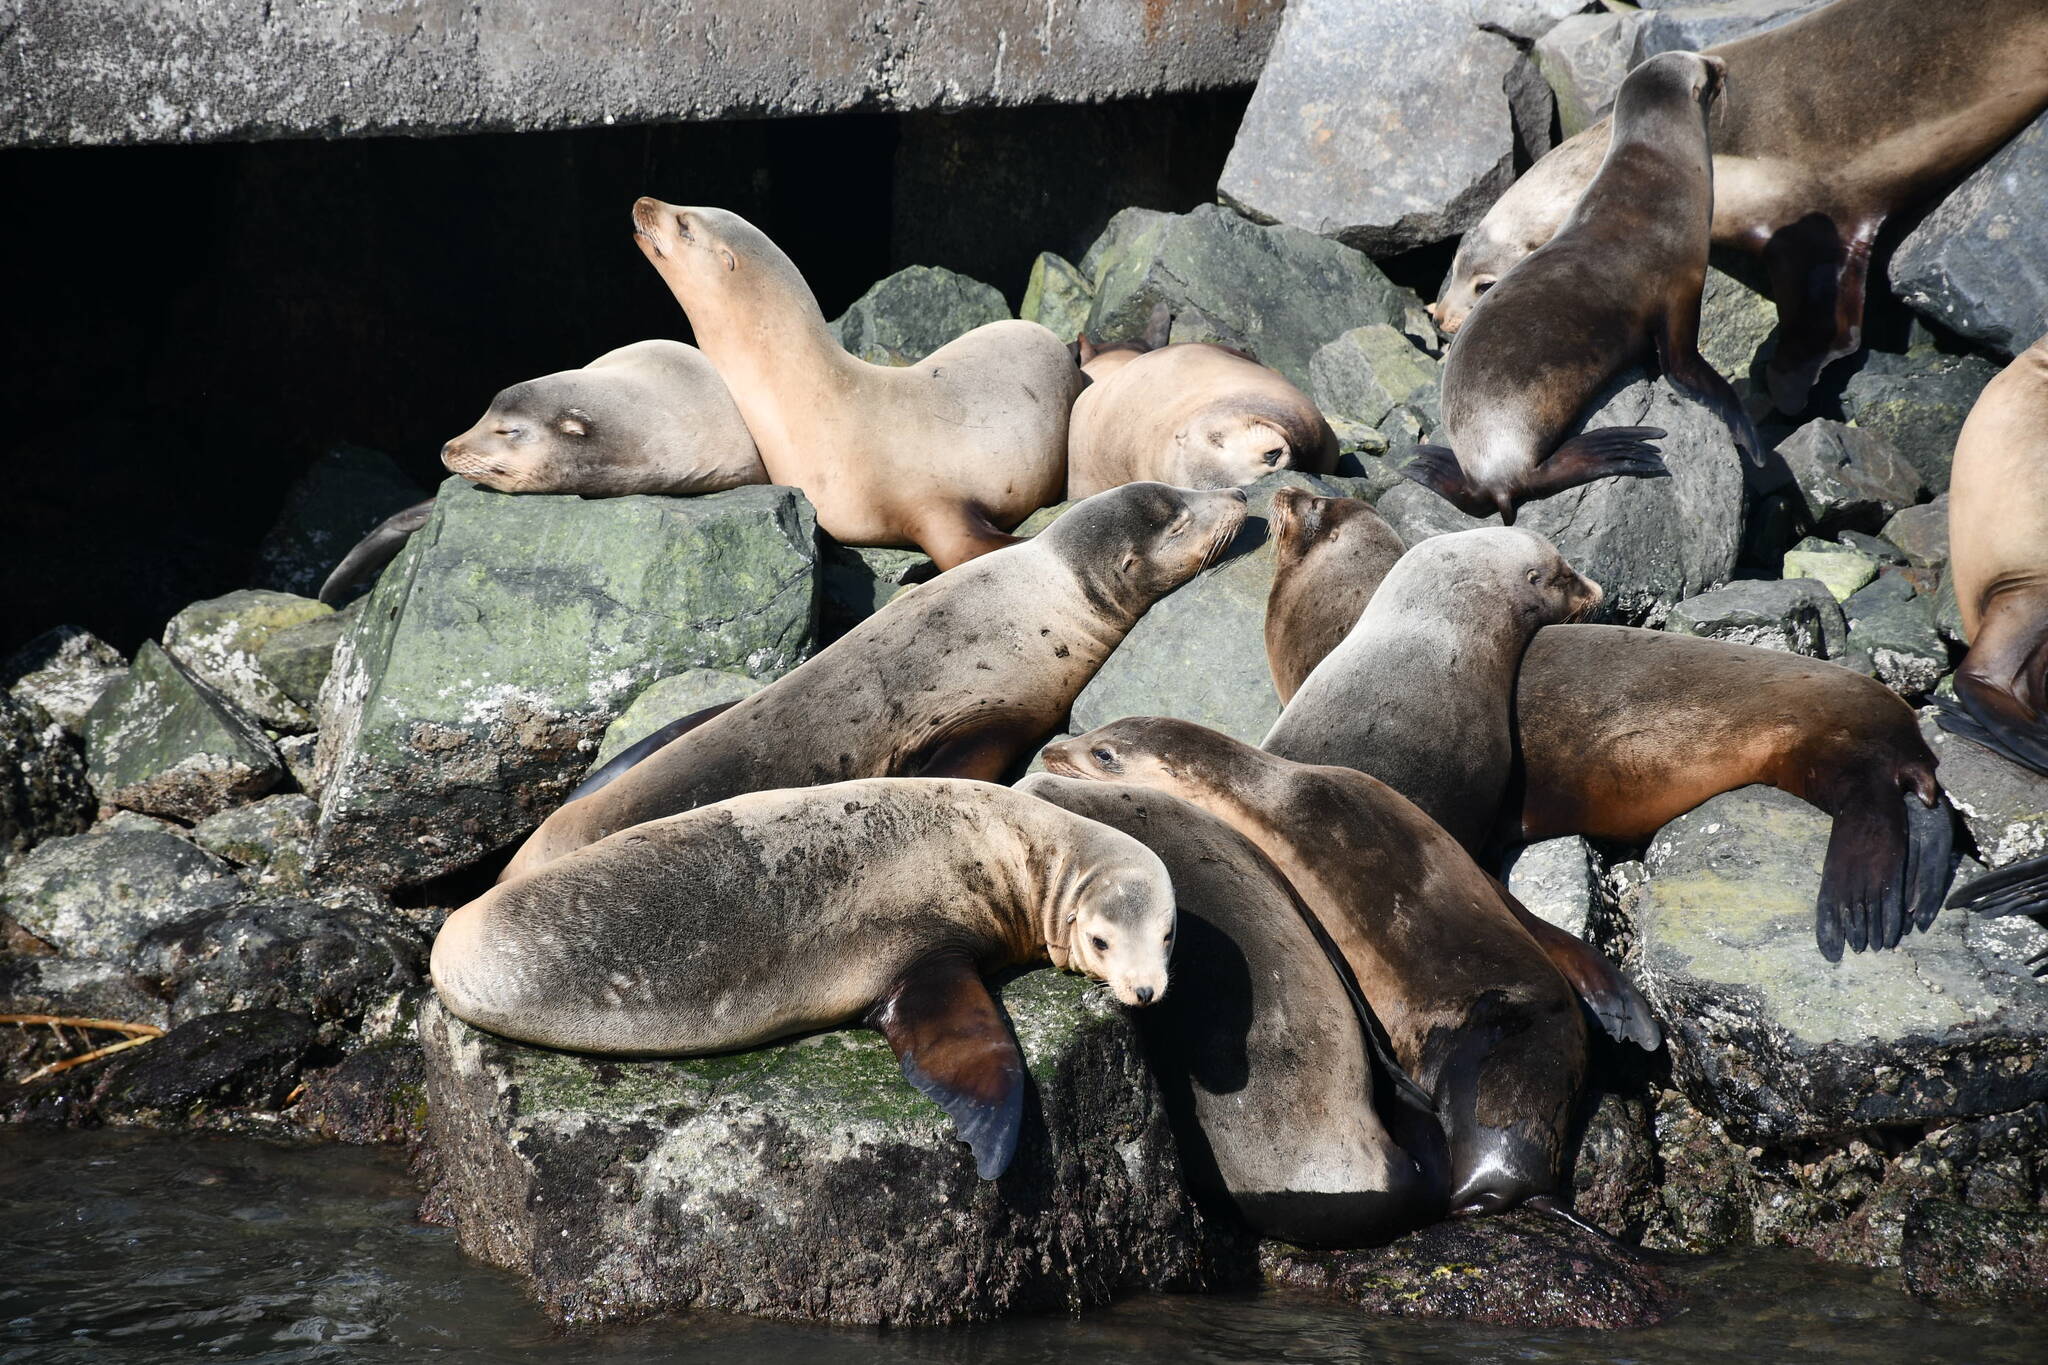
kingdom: Animalia
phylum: Chordata
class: Mammalia
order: Carnivora
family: Otariidae
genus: Zalophus
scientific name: Zalophus californianus
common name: California sea lion
